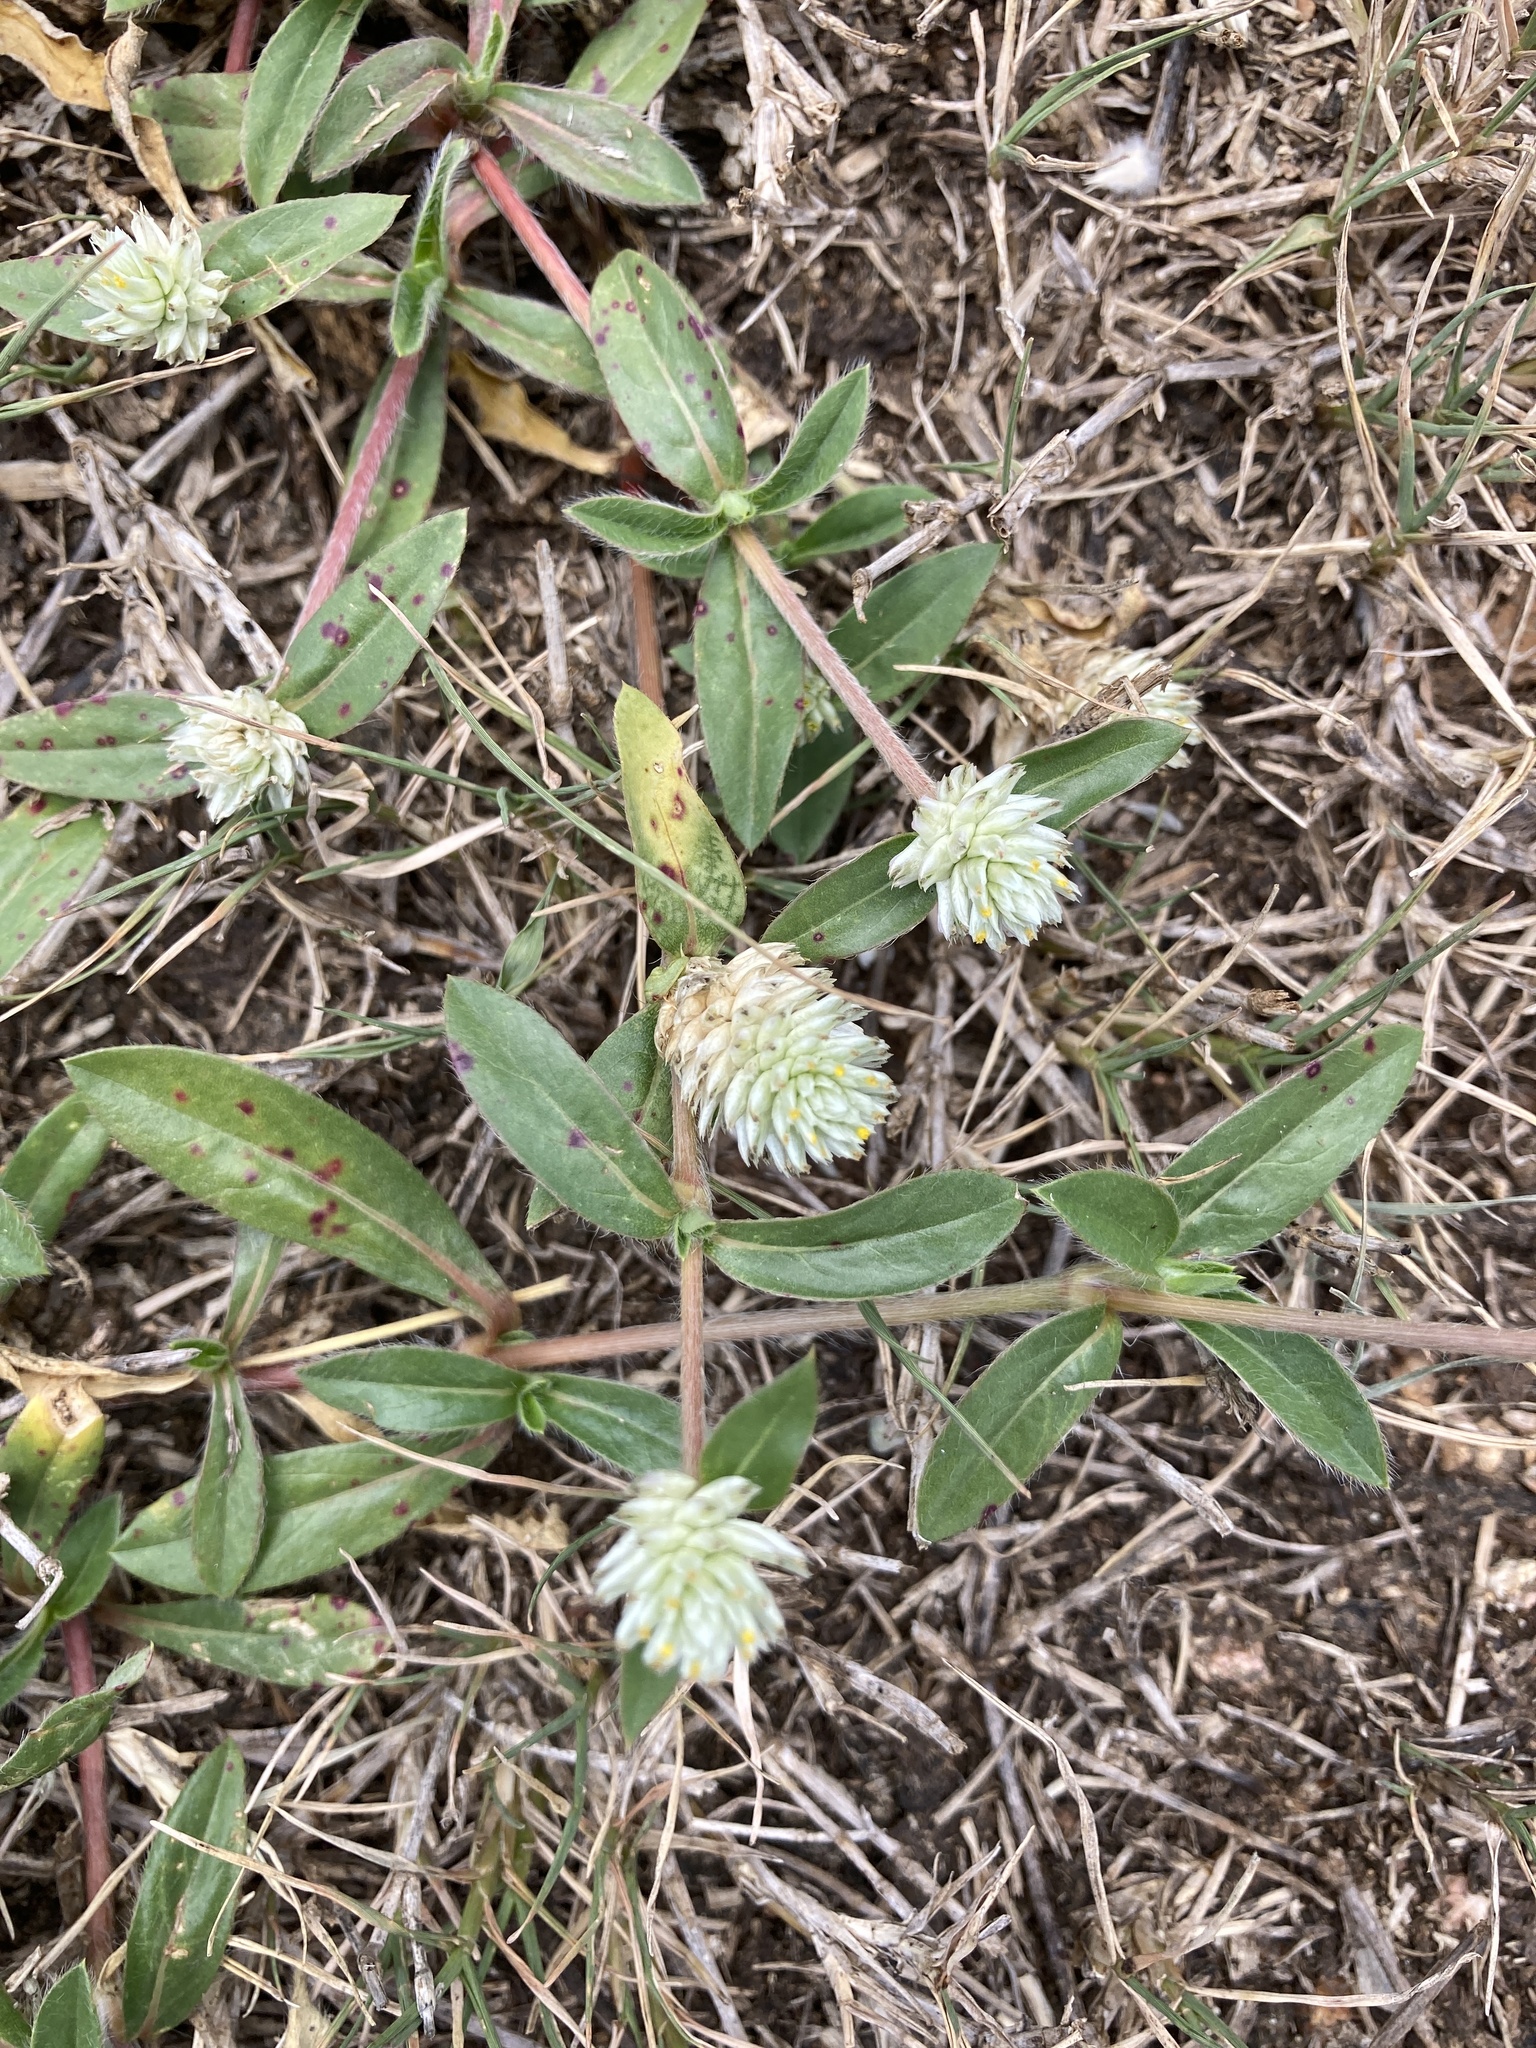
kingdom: Plantae
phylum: Tracheophyta
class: Magnoliopsida
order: Caryophyllales
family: Amaranthaceae
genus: Gomphrena
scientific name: Gomphrena celosioides
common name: Gomphrena-weed
